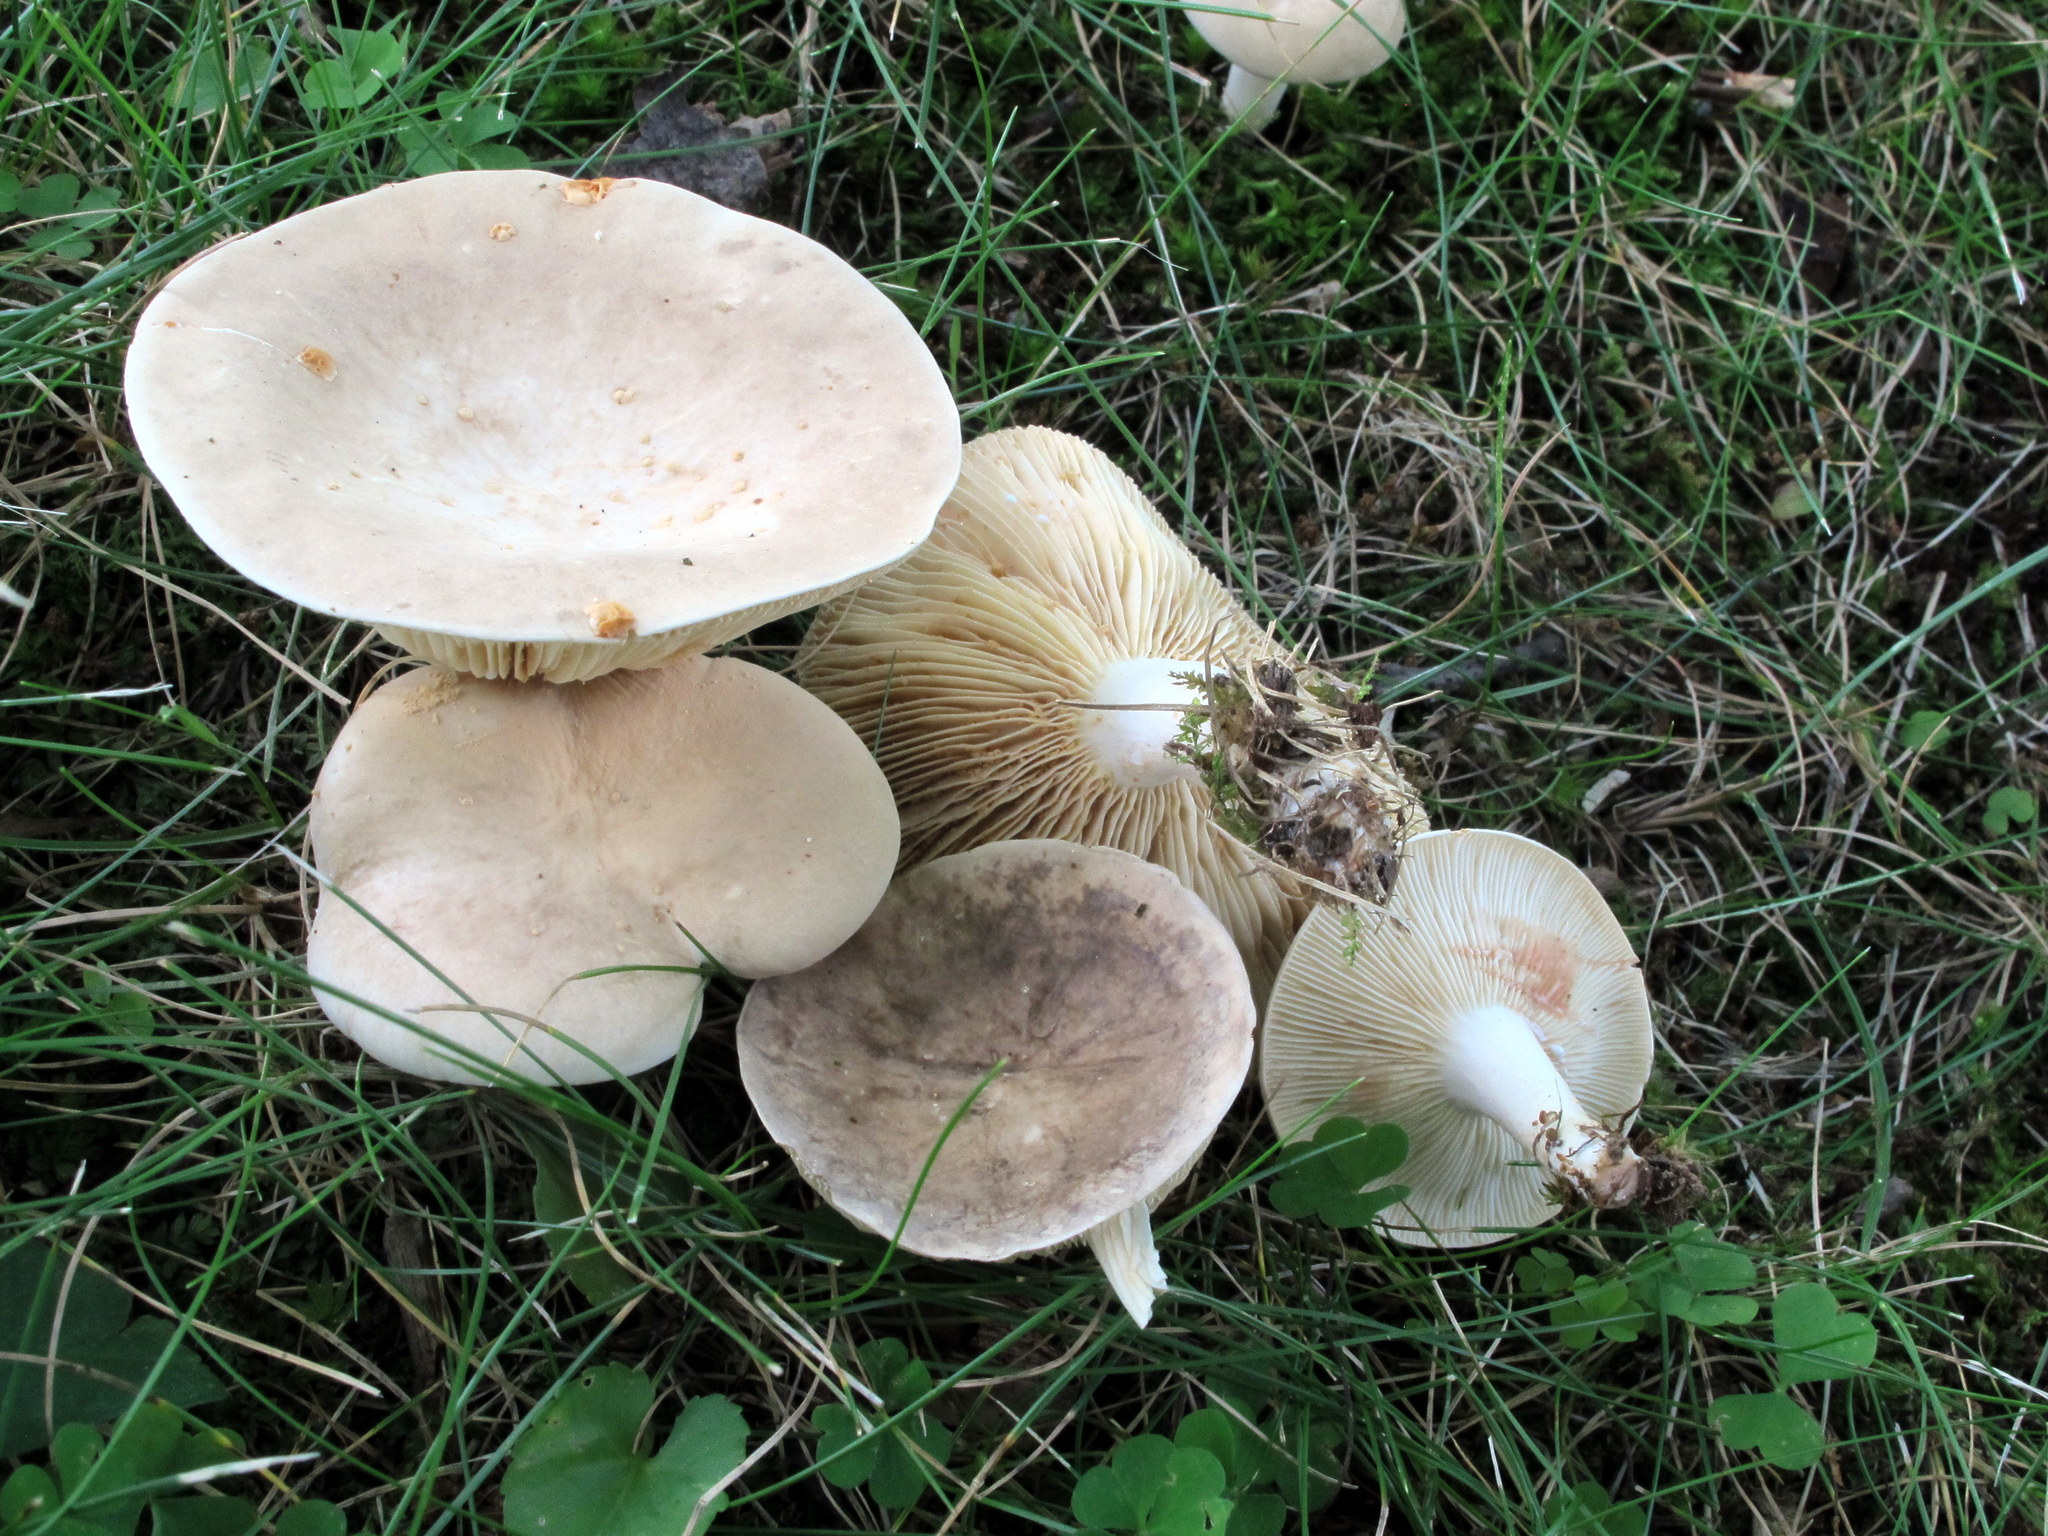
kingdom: Fungi
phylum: Basidiomycota
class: Agaricomycetes
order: Russulales
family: Russulaceae
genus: Lactarius
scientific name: Lactarius subvernalis
